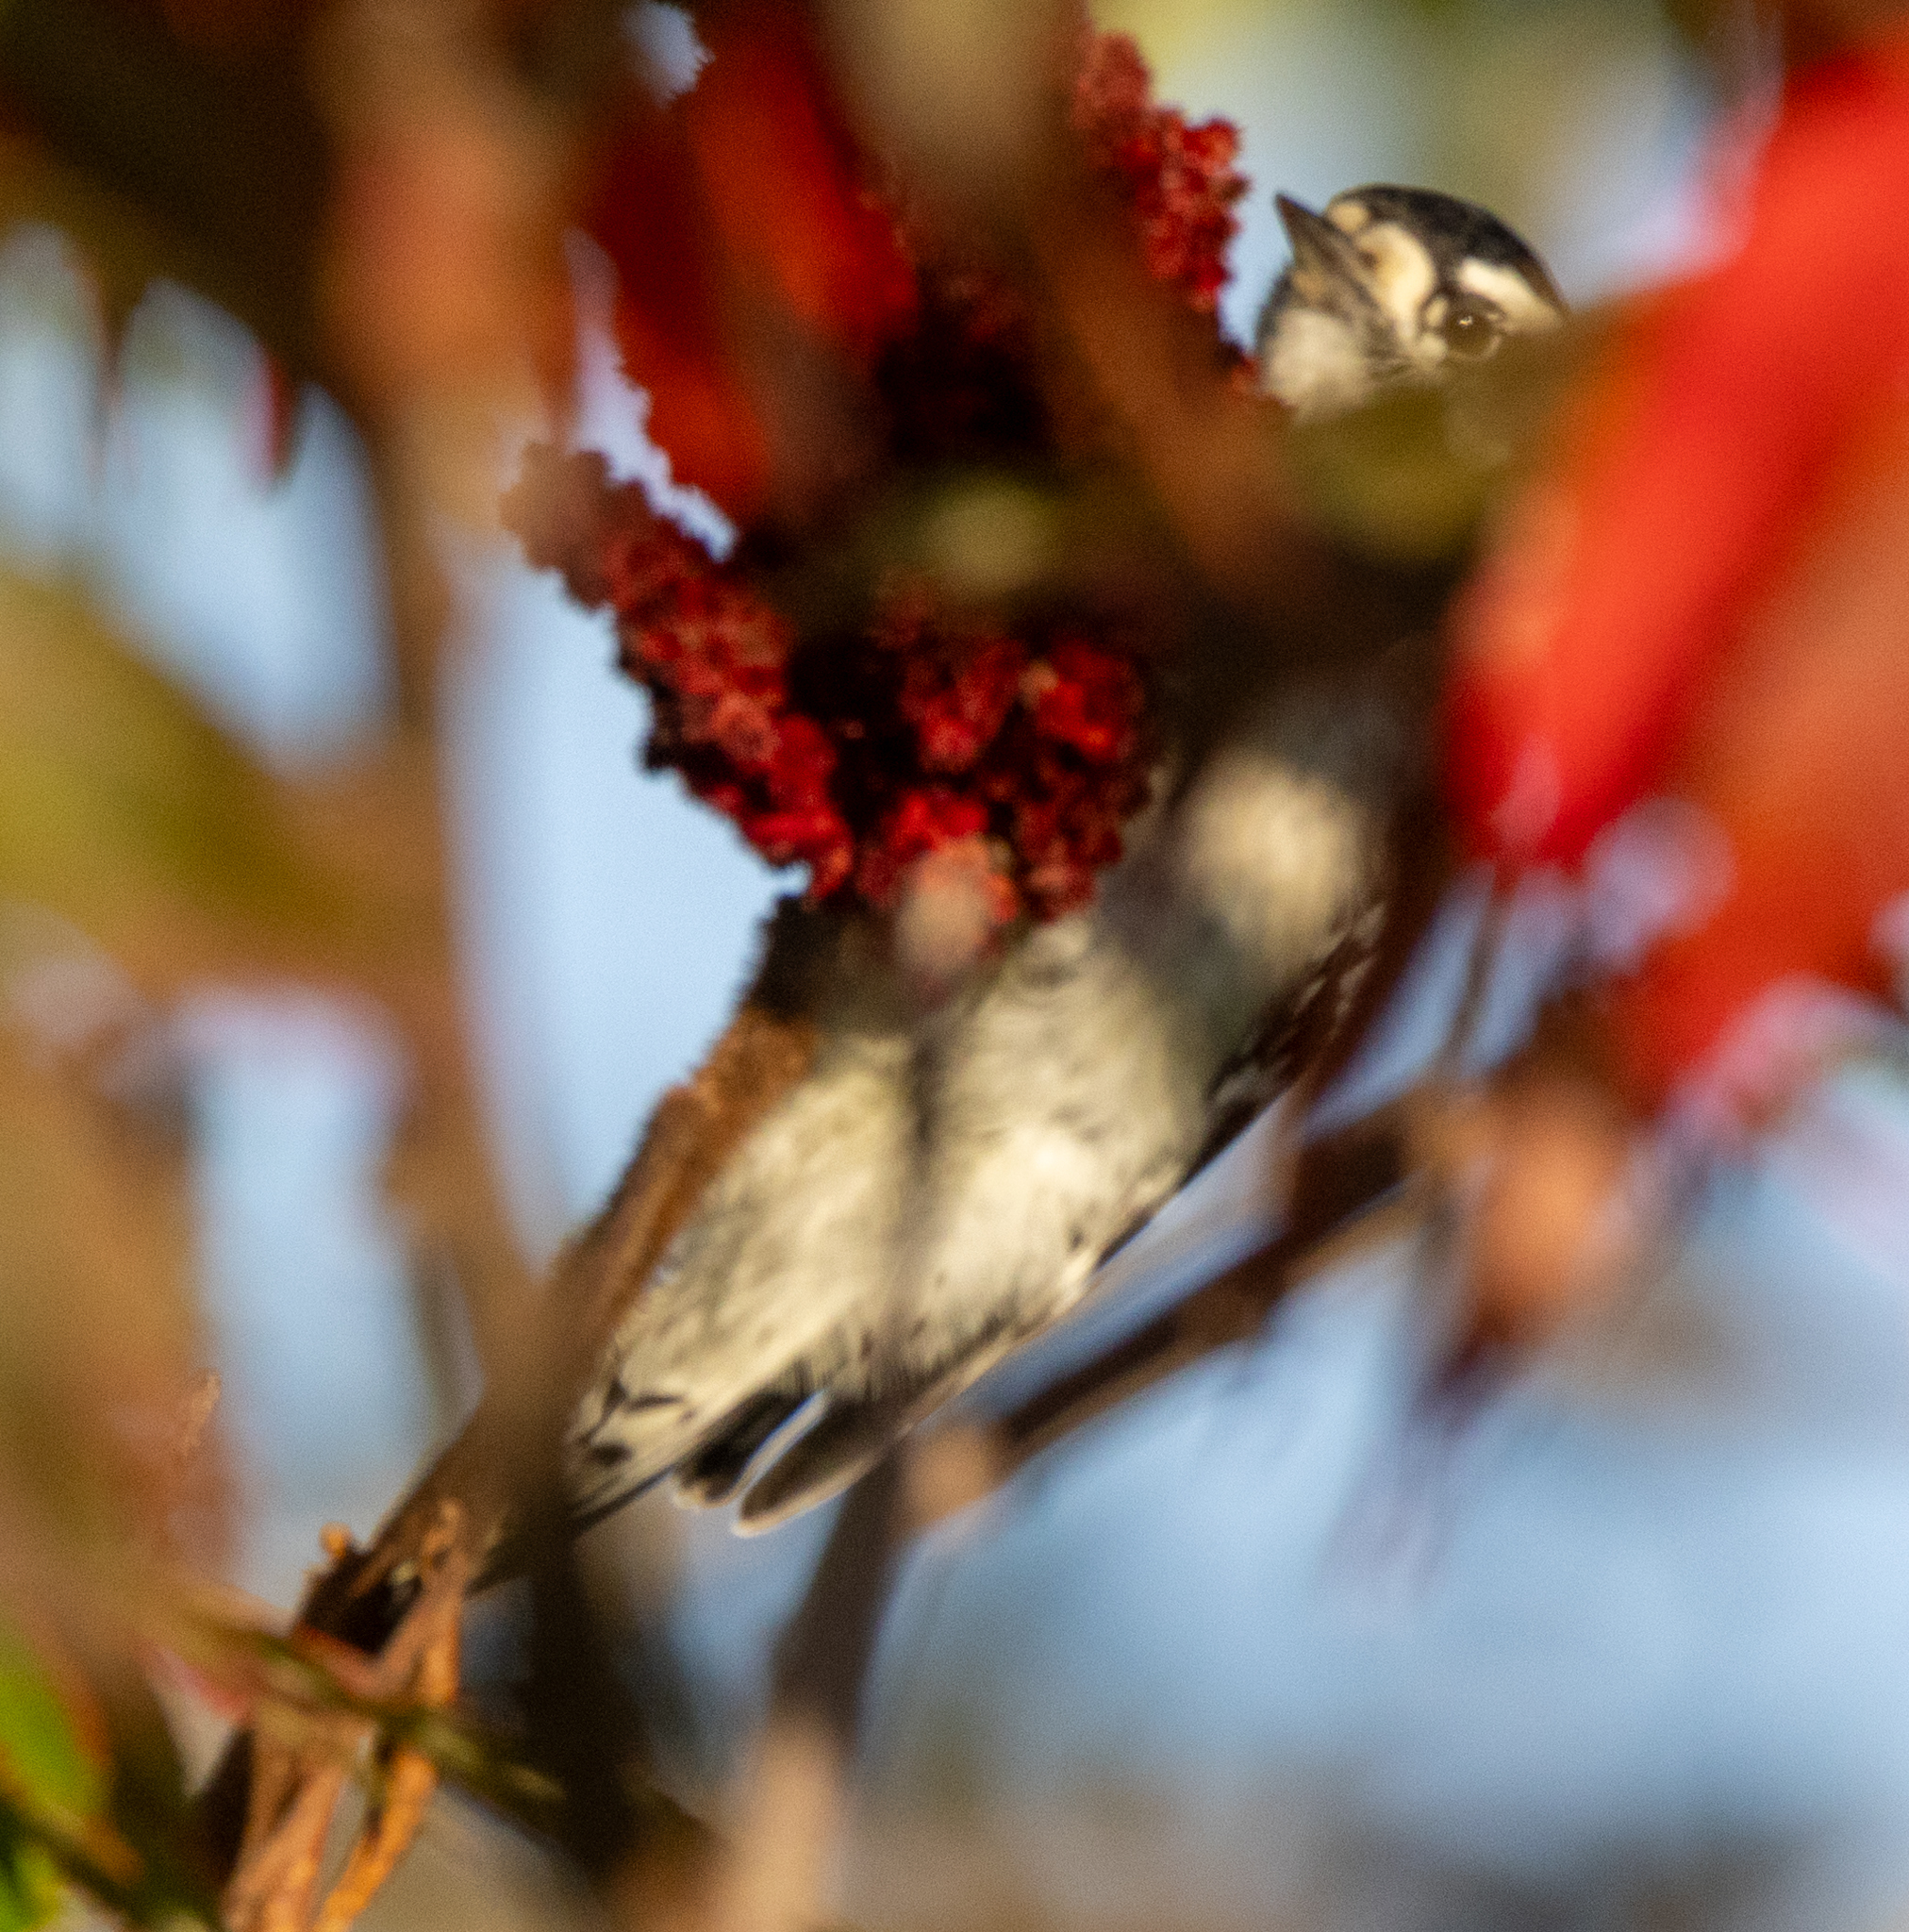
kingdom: Animalia
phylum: Chordata
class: Aves
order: Piciformes
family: Picidae
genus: Dryobates
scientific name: Dryobates pubescens
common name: Downy woodpecker
